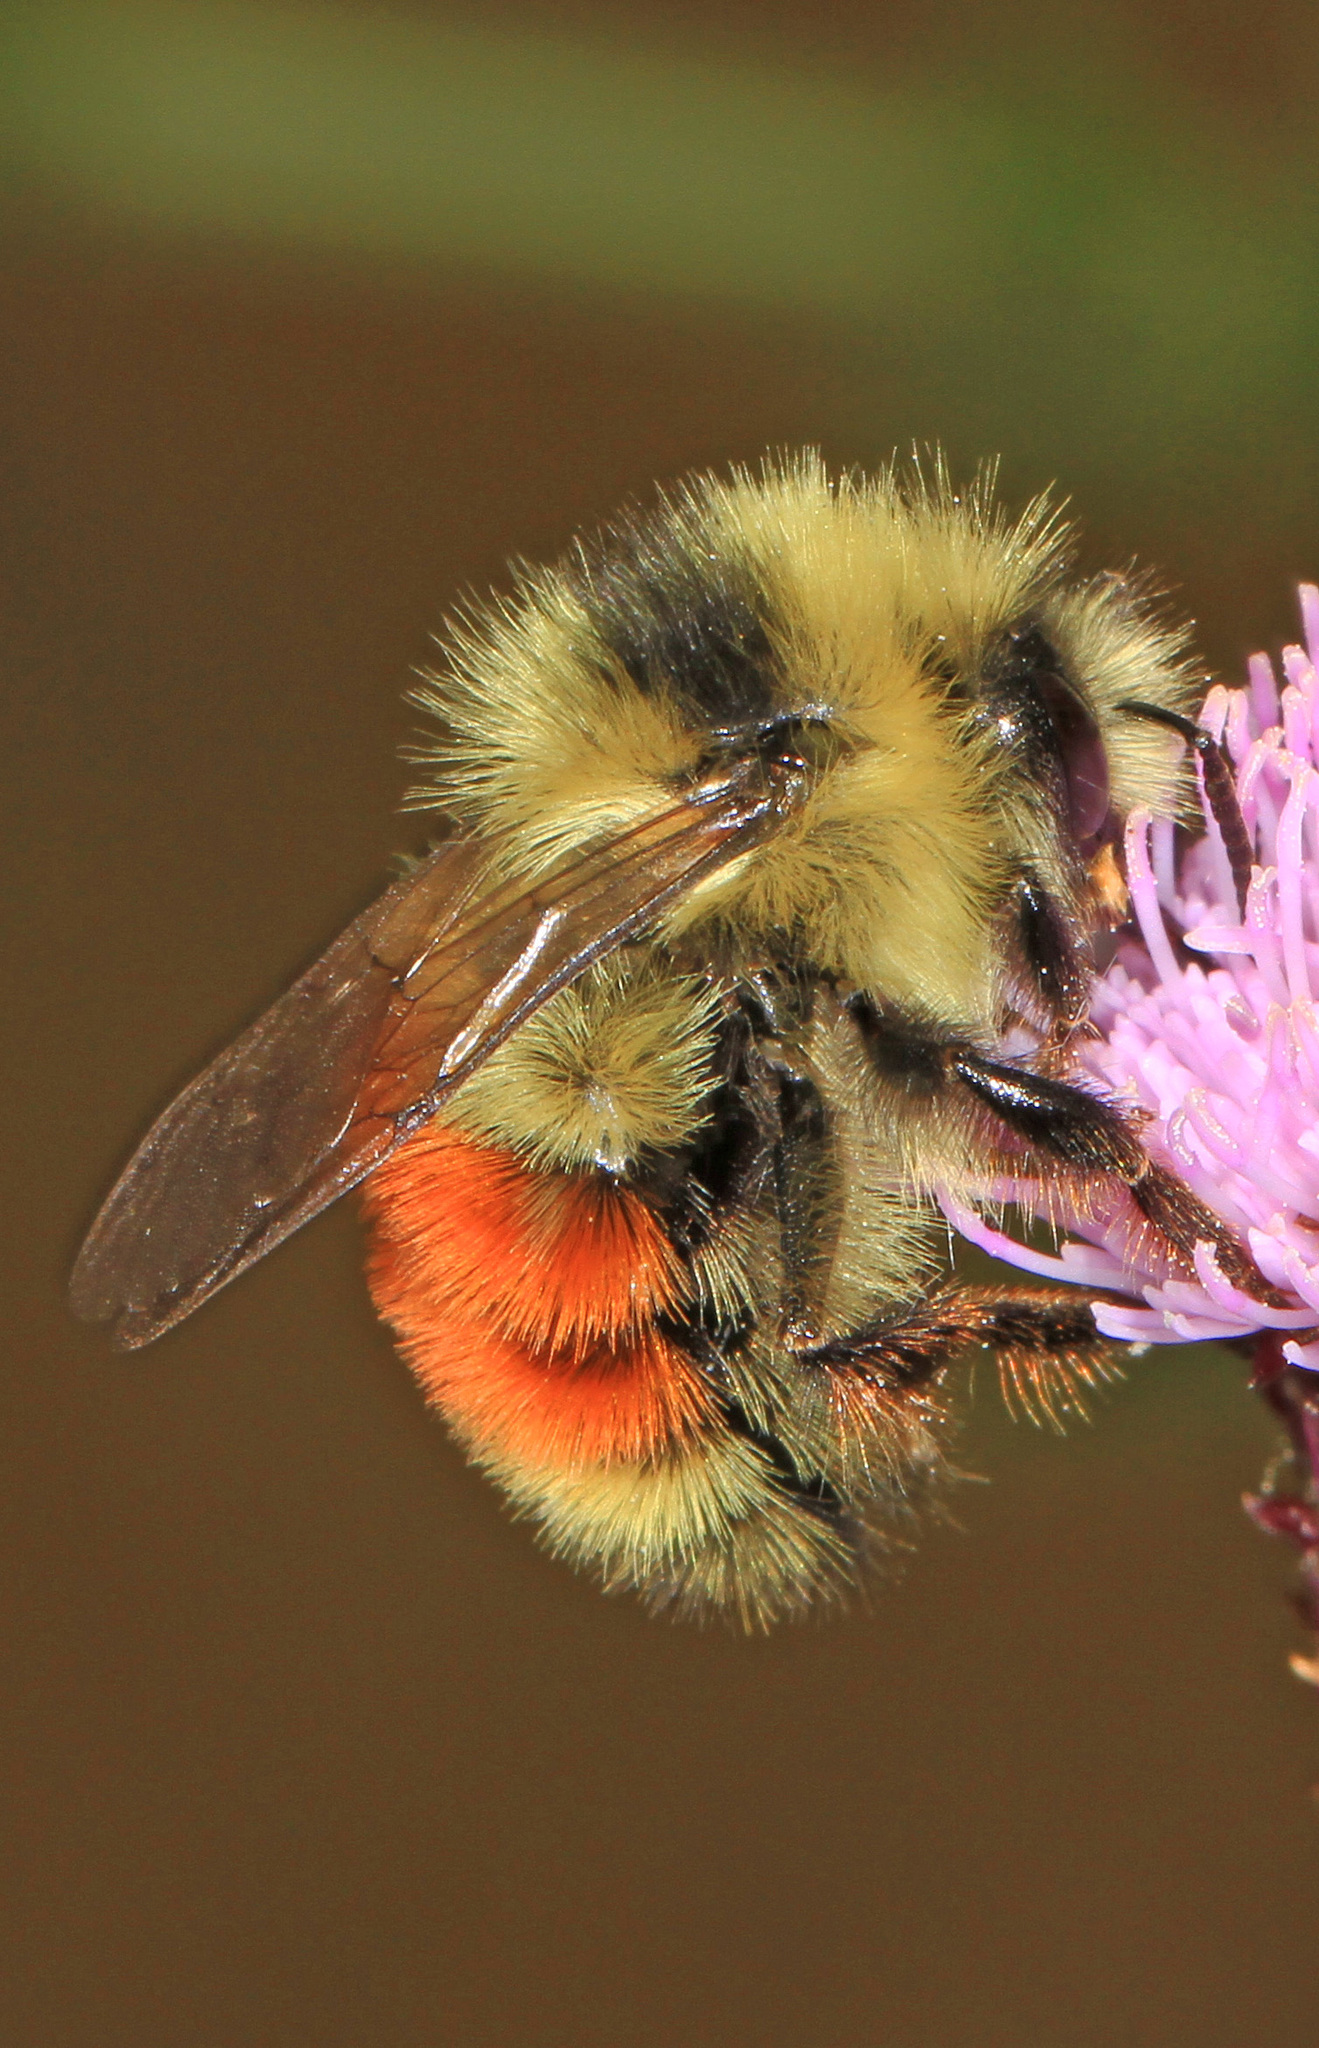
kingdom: Animalia
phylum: Arthropoda
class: Insecta
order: Hymenoptera
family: Apidae
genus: Bombus
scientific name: Bombus huntii
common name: Hunt bumble bee
